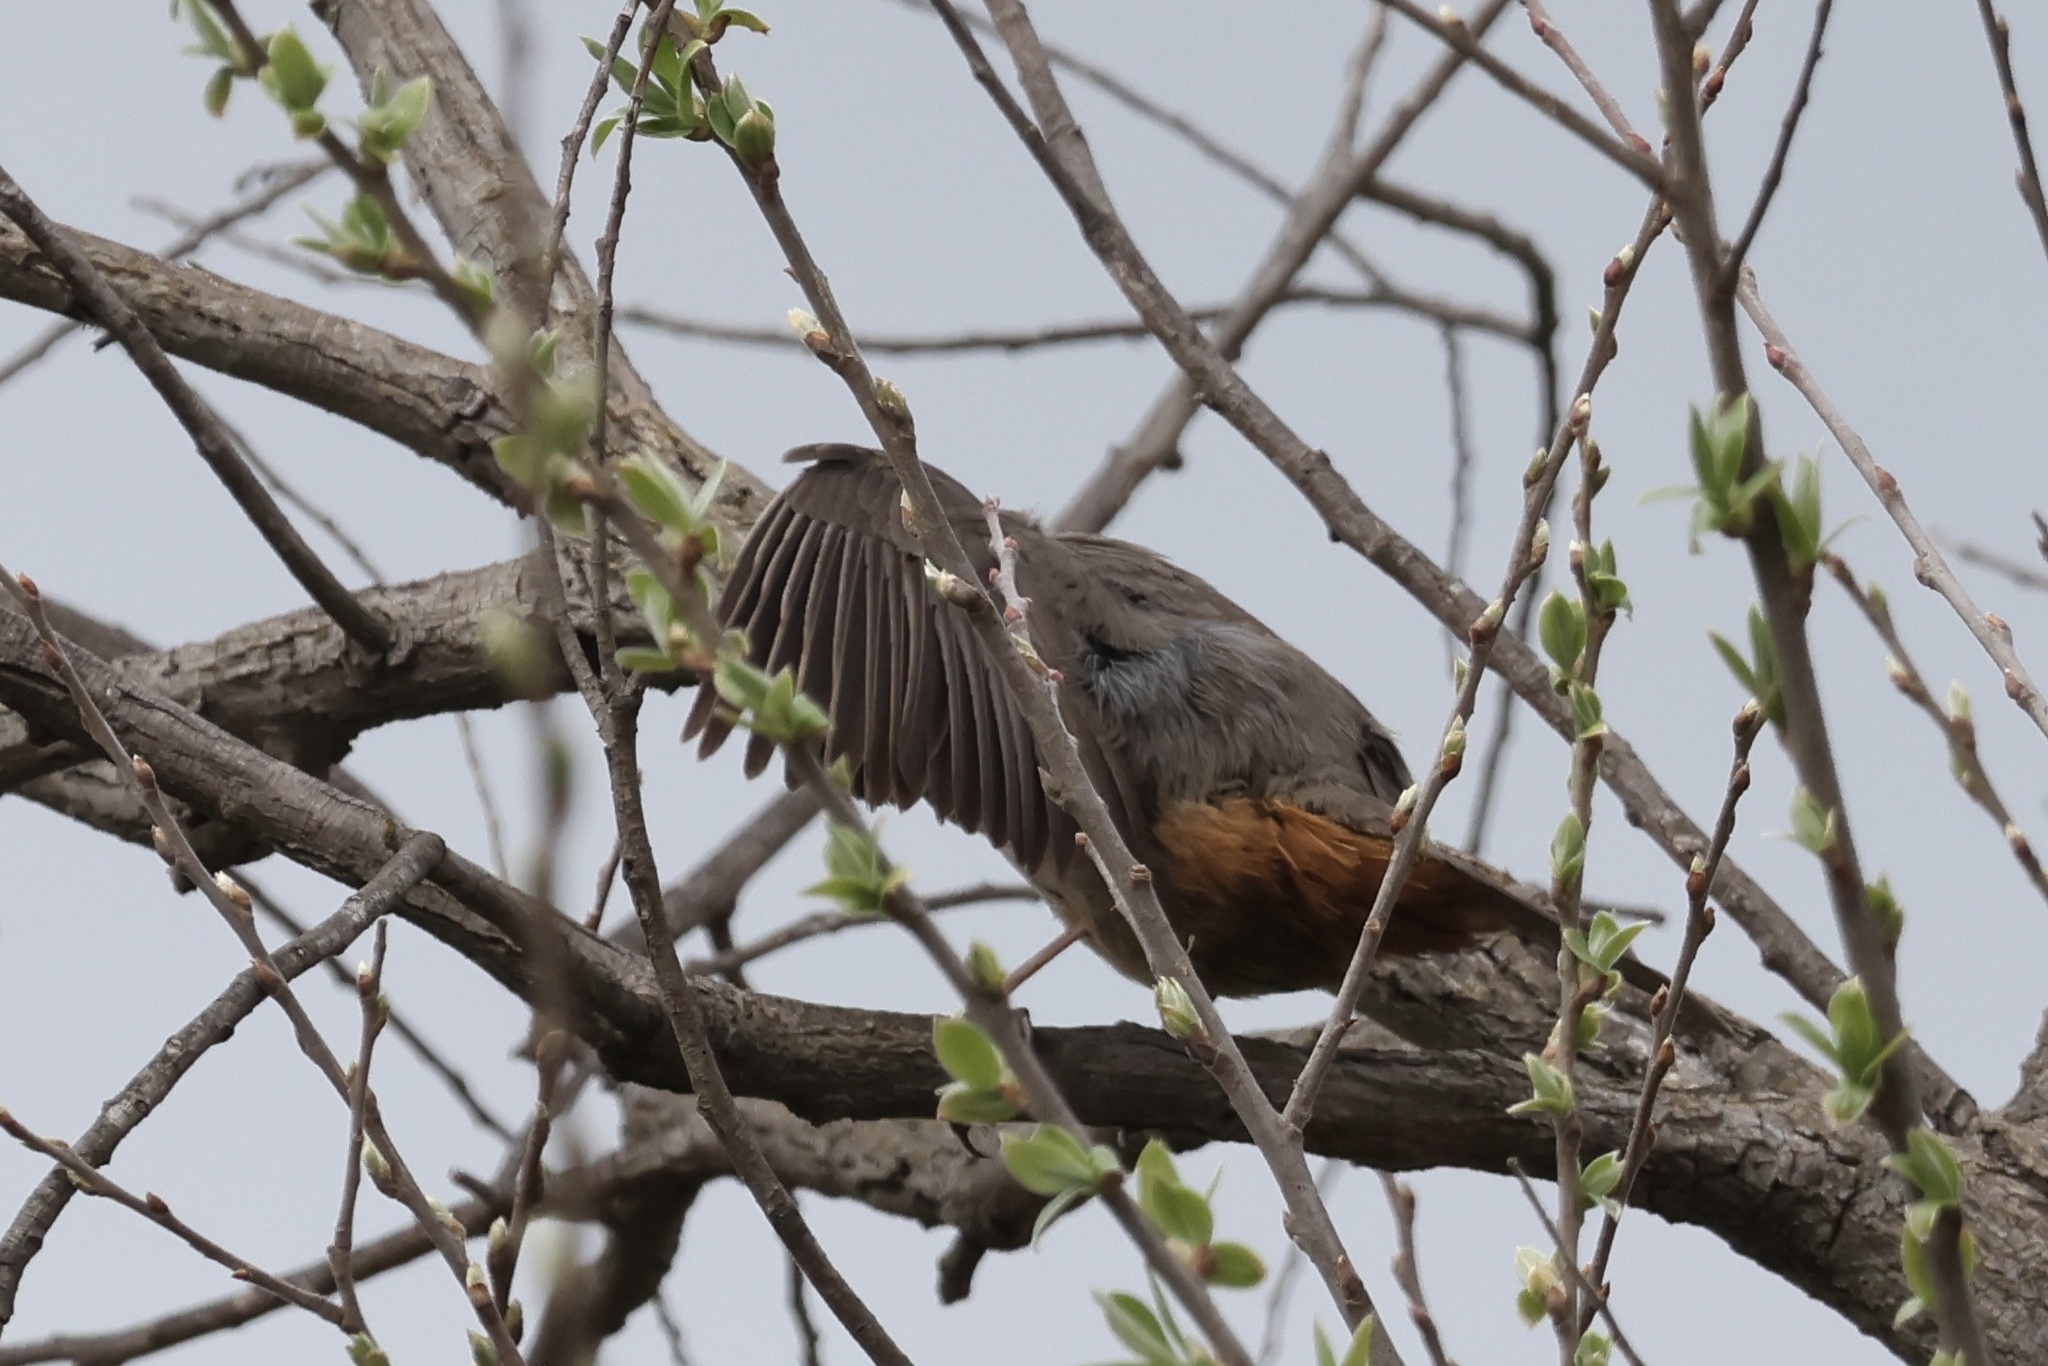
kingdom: Animalia
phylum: Chordata
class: Aves
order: Passeriformes
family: Passerellidae
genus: Melozone
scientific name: Melozone crissalis
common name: California towhee
